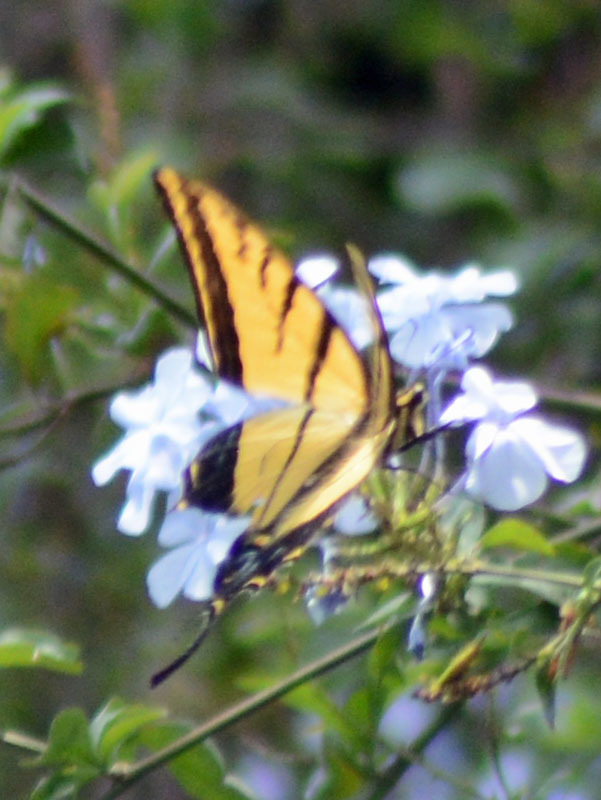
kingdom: Animalia
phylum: Arthropoda
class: Insecta
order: Lepidoptera
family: Papilionidae
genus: Papilio
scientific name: Papilio multicaudata
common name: Two-tailed tiger swallowtail
